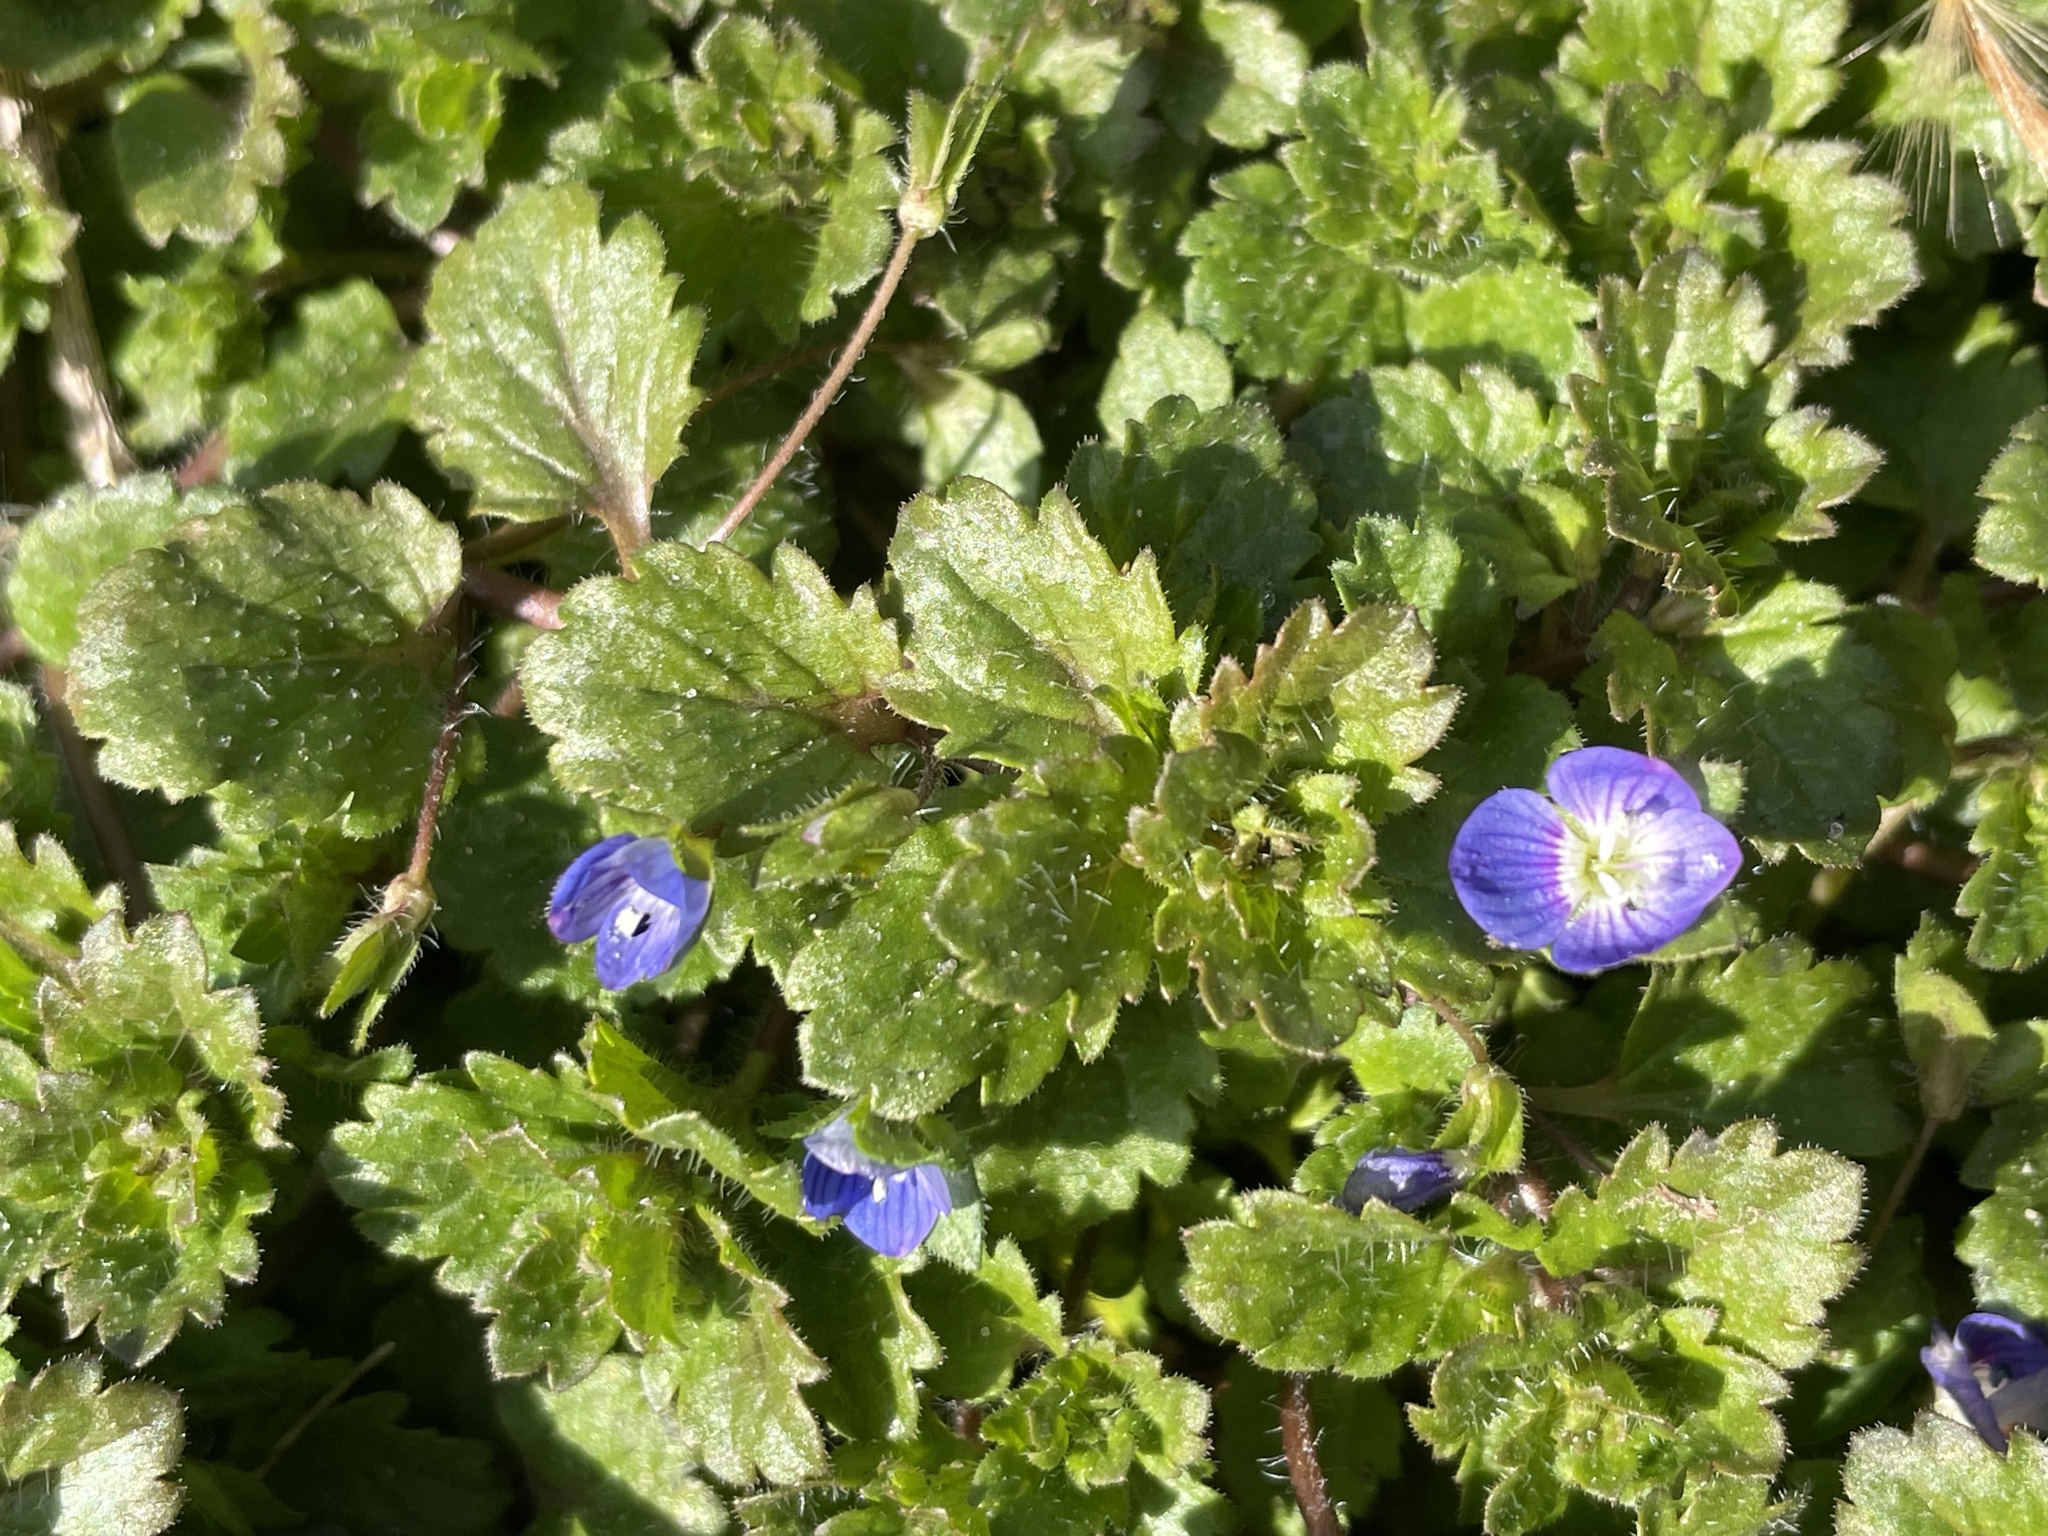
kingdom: Plantae
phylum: Tracheophyta
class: Magnoliopsida
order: Lamiales
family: Plantaginaceae
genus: Veronica
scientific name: Veronica persica
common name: Common field-speedwell
